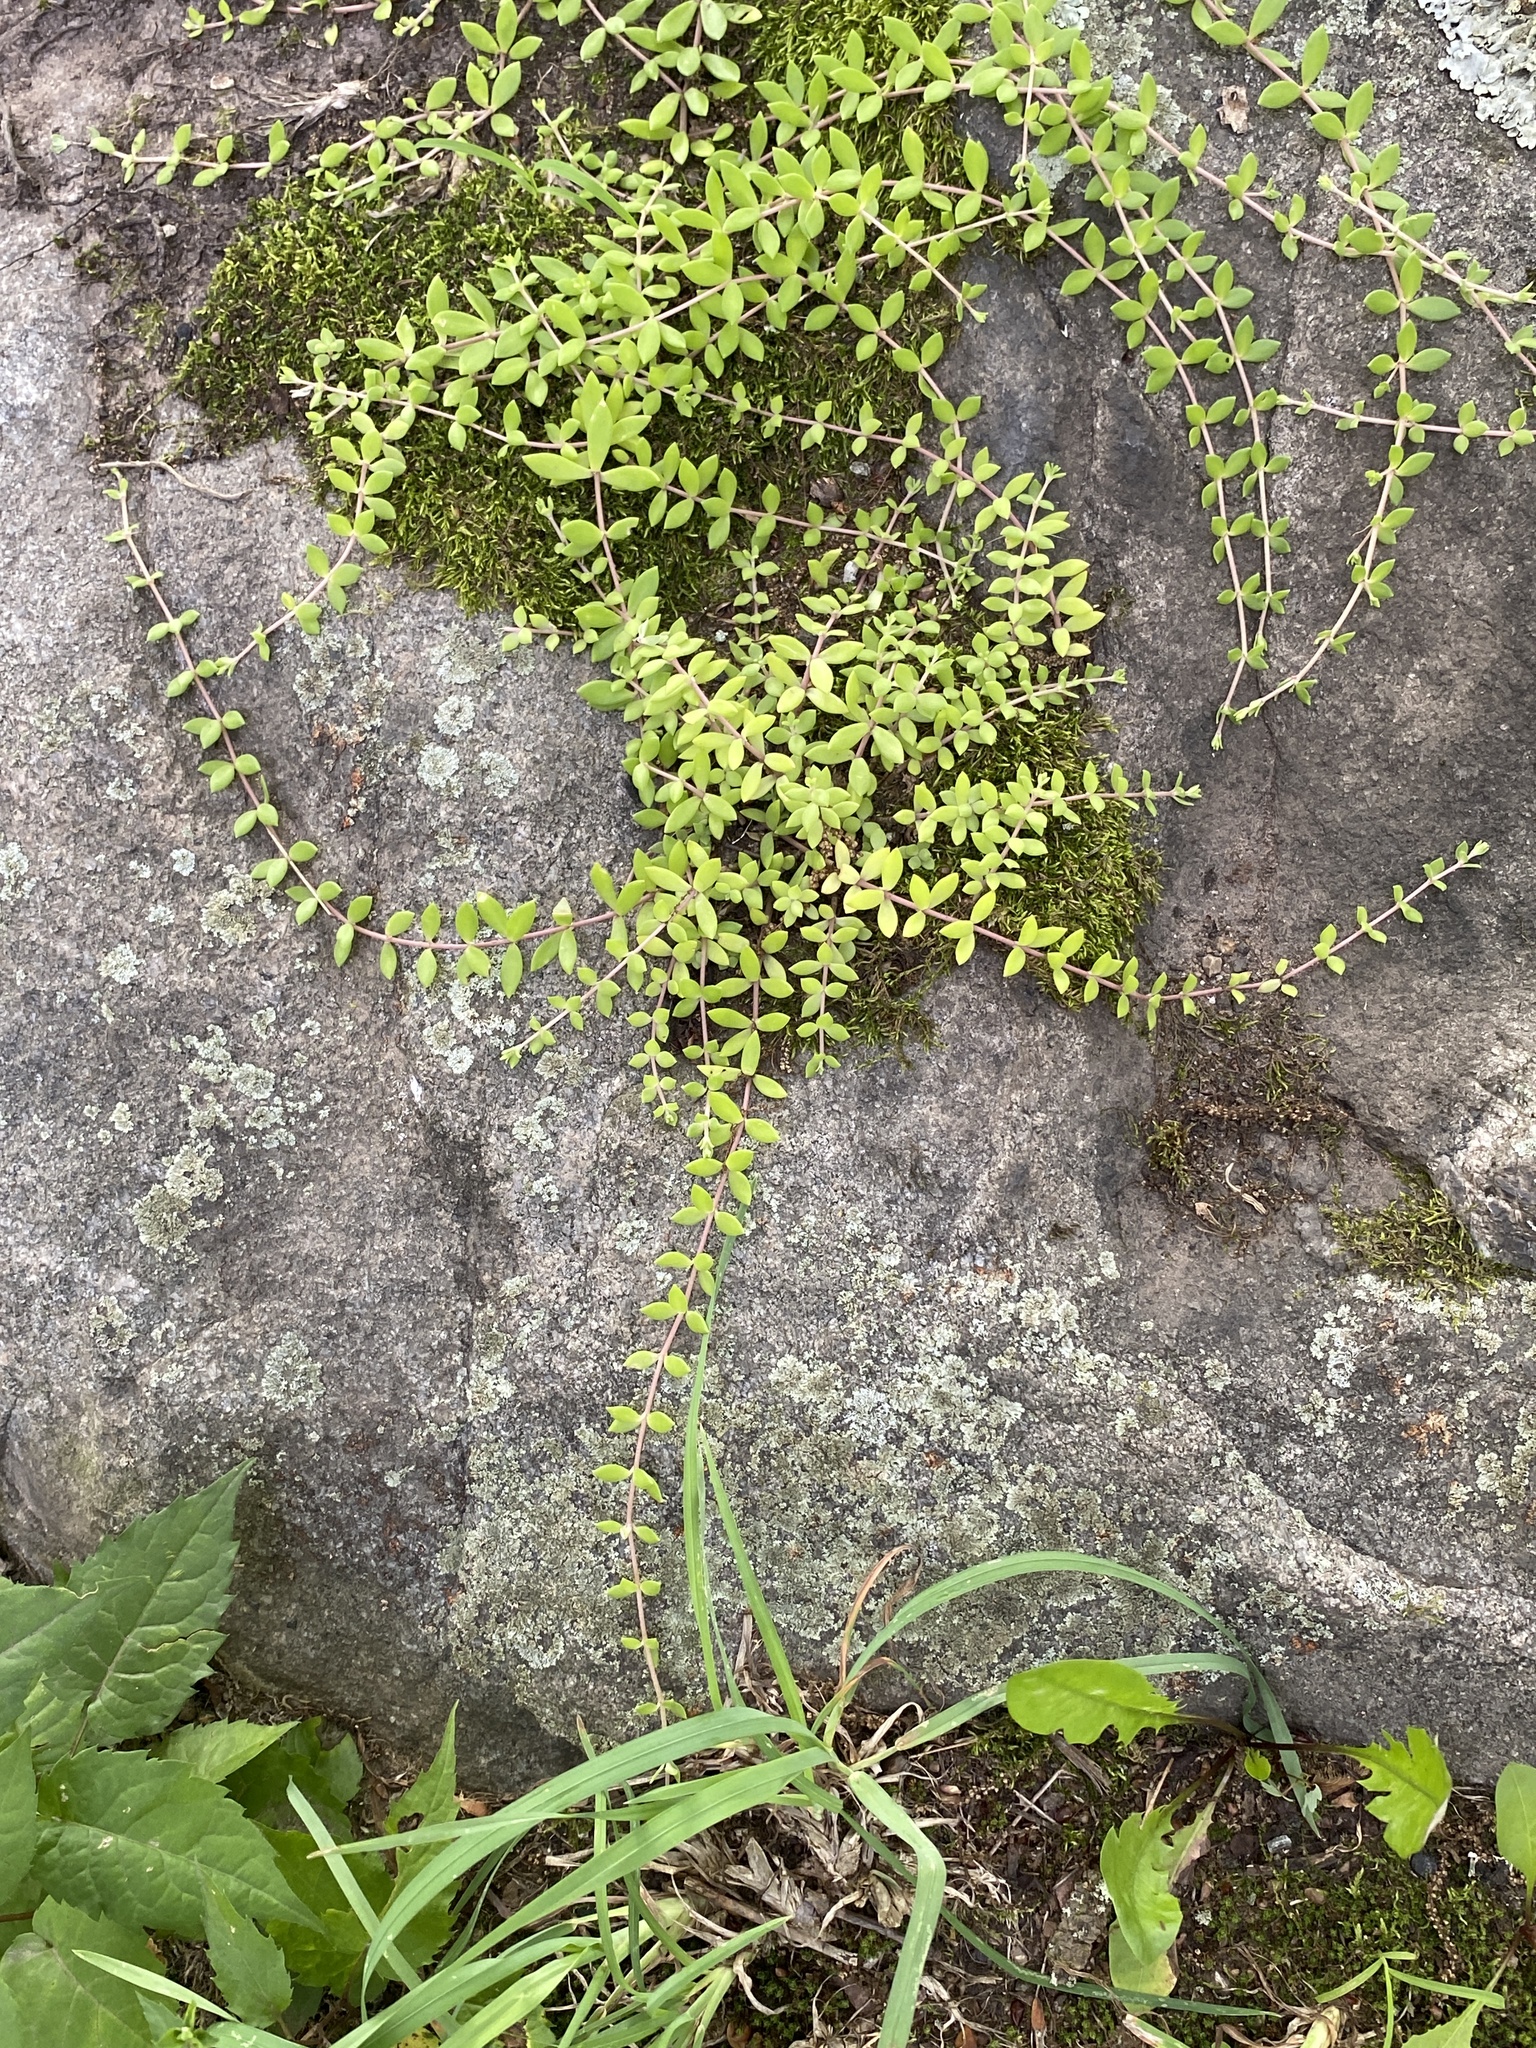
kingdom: Plantae
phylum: Tracheophyta
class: Magnoliopsida
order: Saxifragales
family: Crassulaceae
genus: Sedum
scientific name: Sedum sarmentosum
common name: Stringy stonecrop
